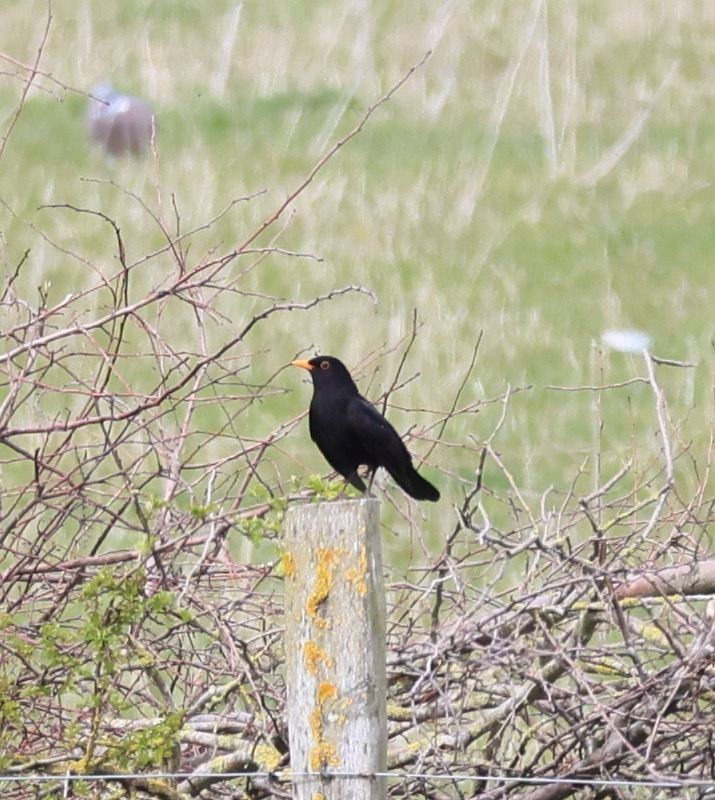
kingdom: Animalia
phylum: Chordata
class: Aves
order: Passeriformes
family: Turdidae
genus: Turdus
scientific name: Turdus merula
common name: Common blackbird
